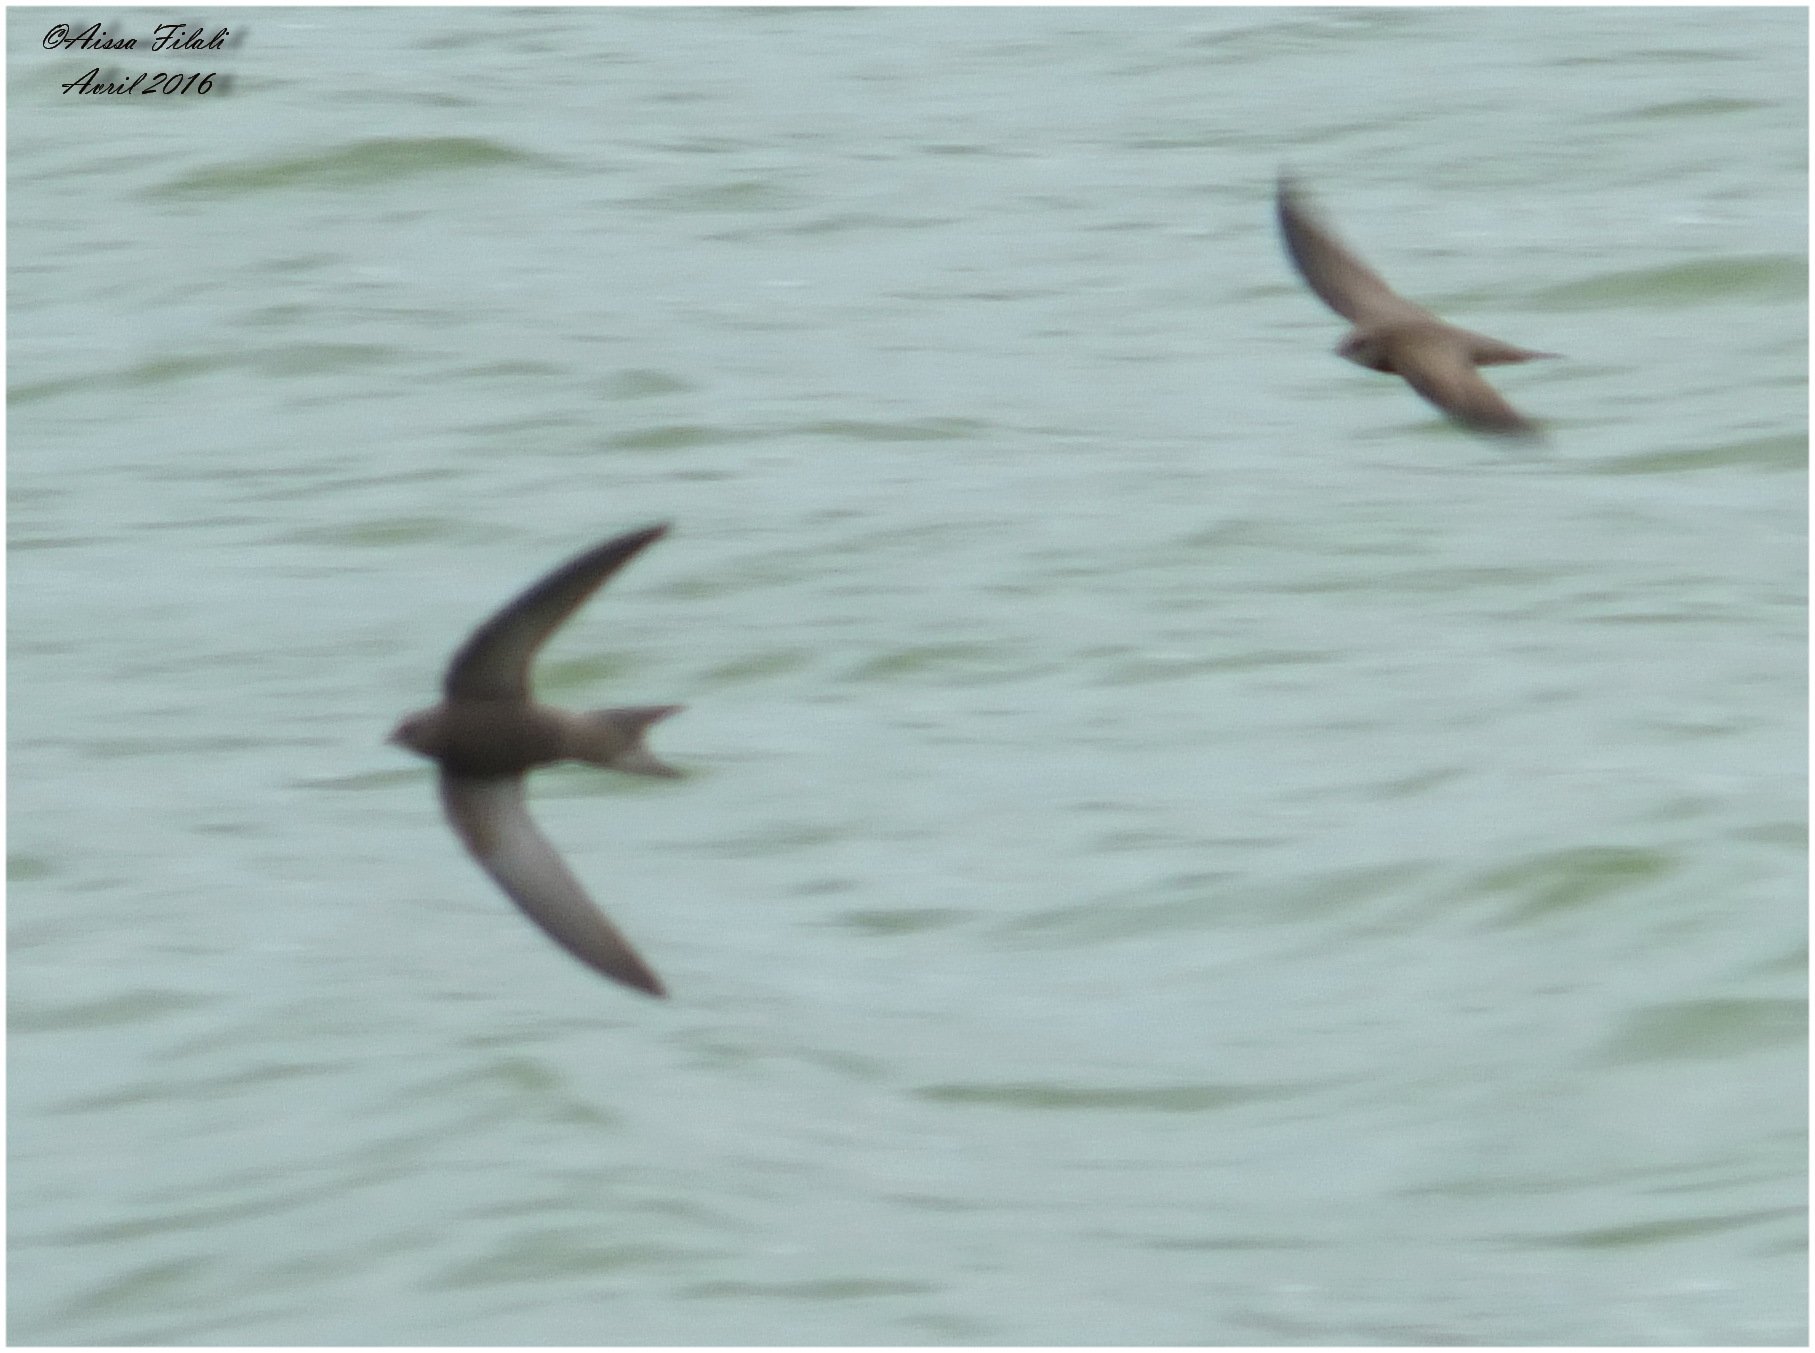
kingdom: Animalia
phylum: Chordata
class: Aves
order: Apodiformes
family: Apodidae
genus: Apus
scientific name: Apus apus
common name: Common swift
